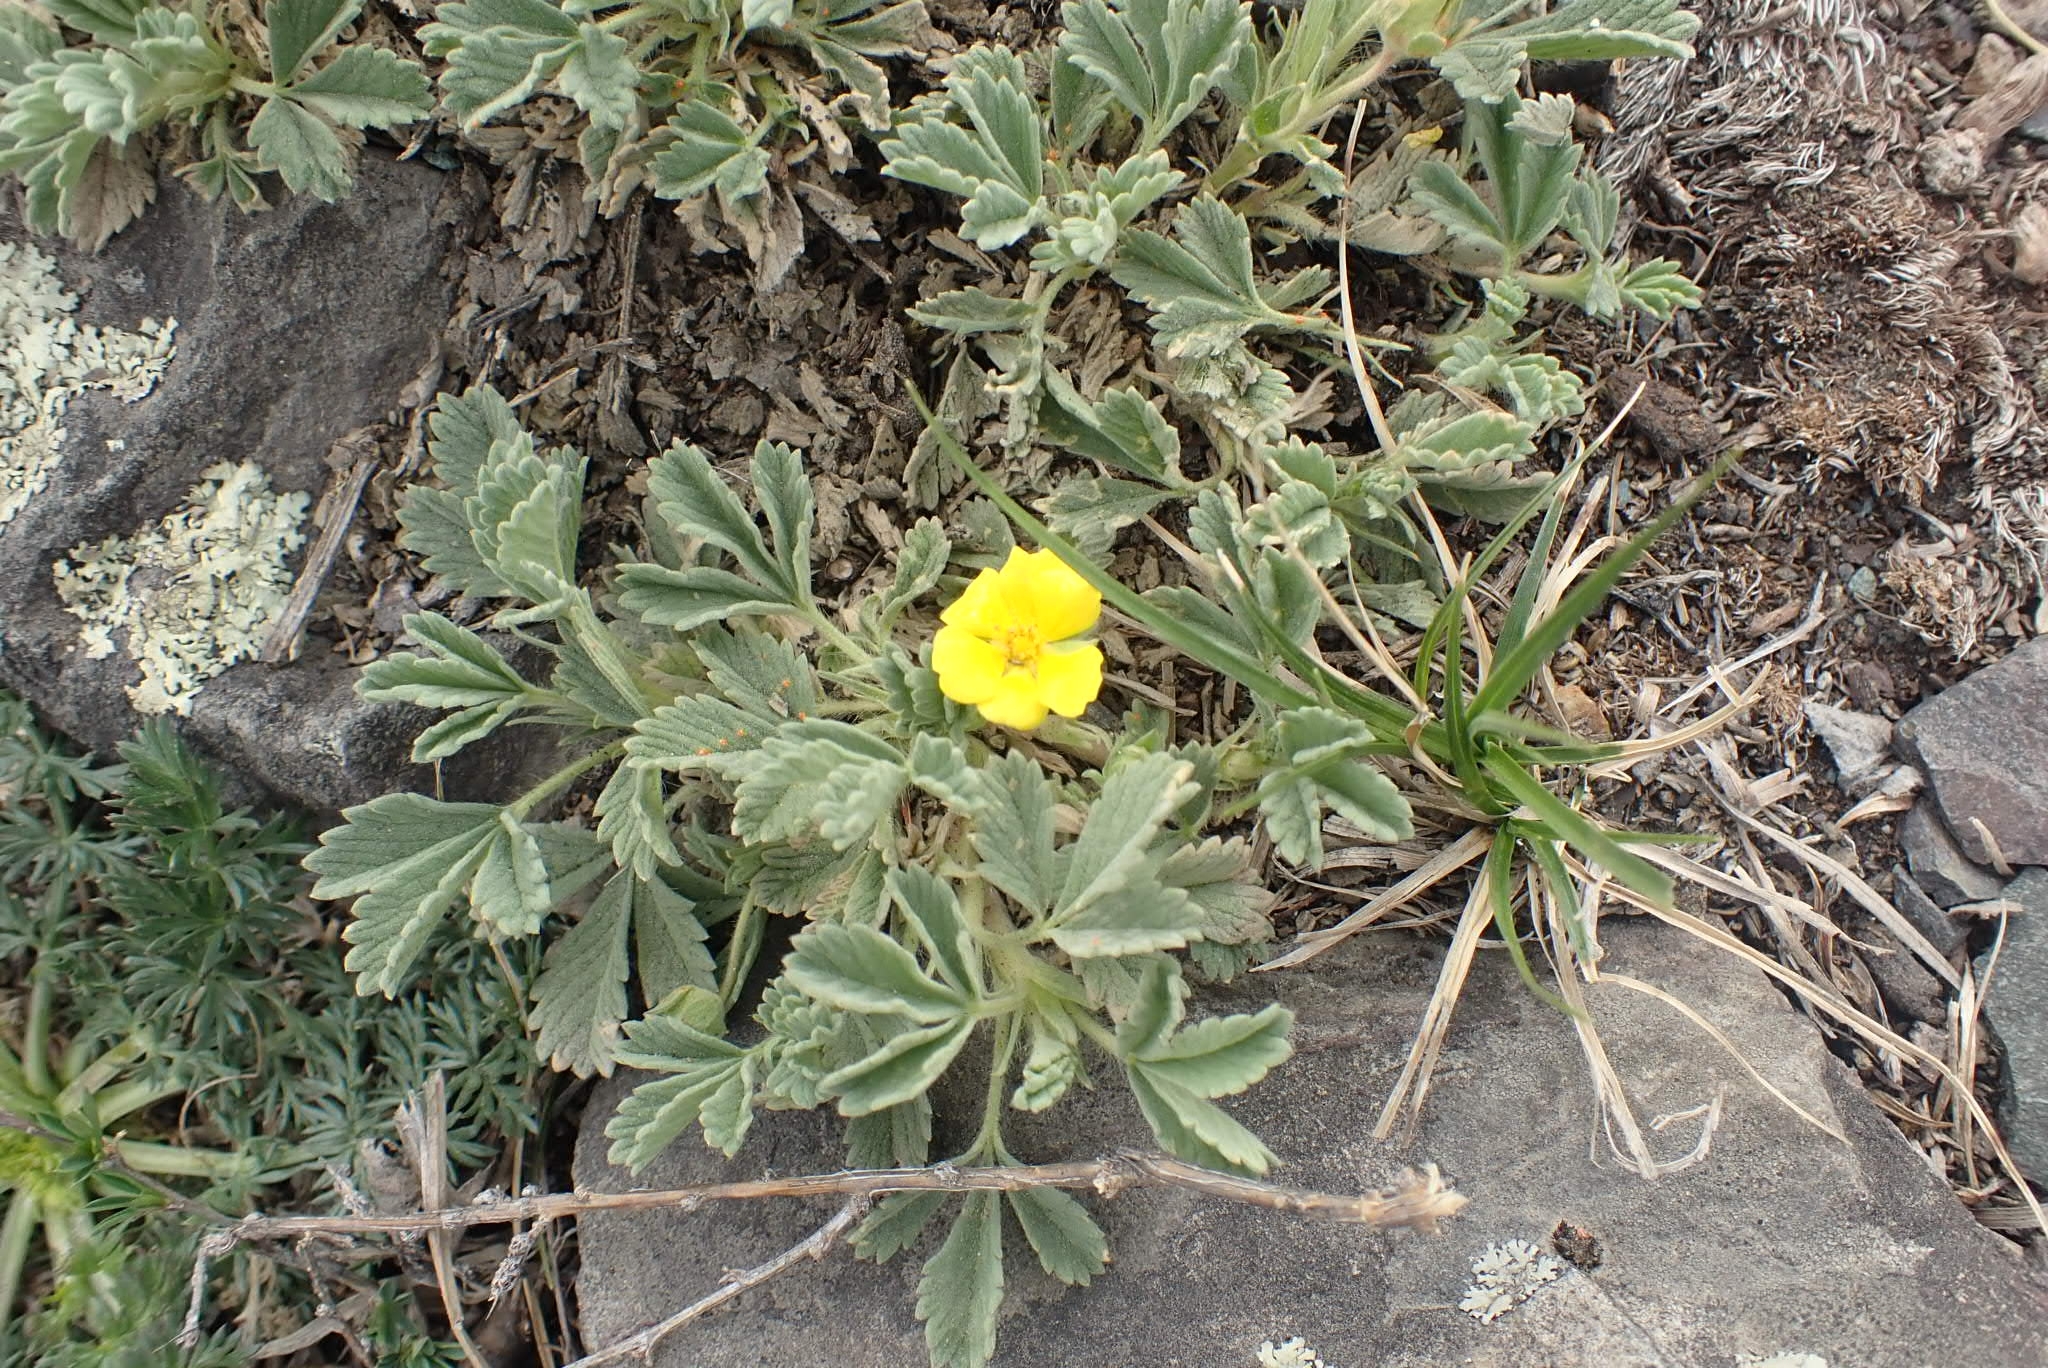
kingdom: Plantae
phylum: Tracheophyta
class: Magnoliopsida
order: Rosales
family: Rosaceae
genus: Potentilla
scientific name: Potentilla acaulis
